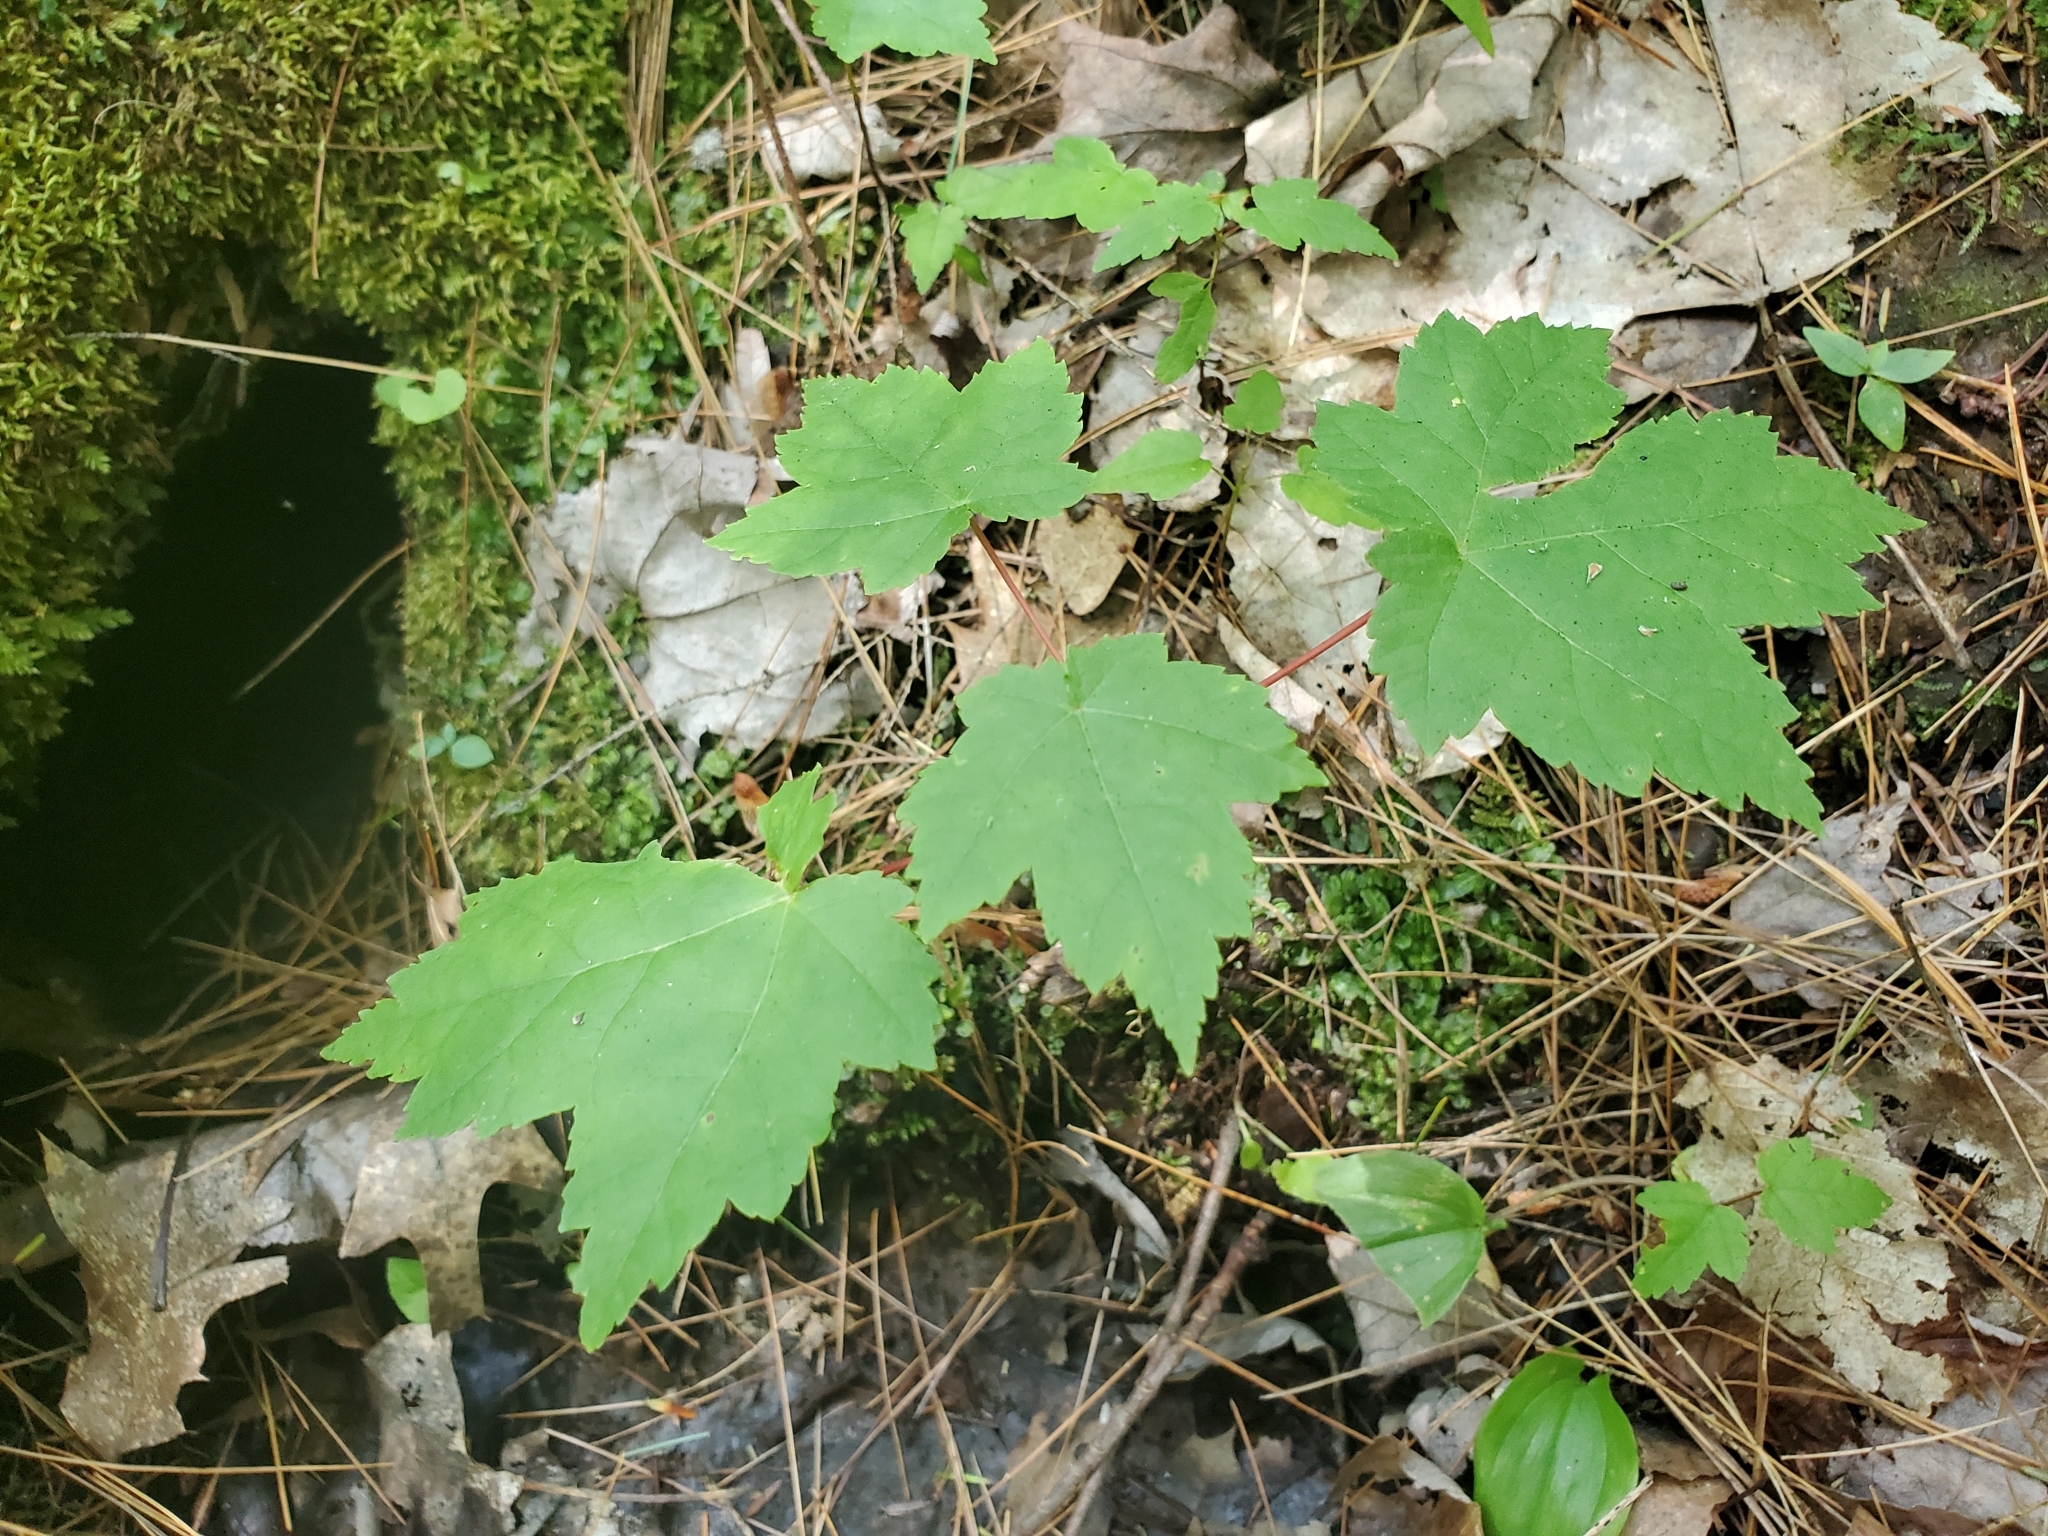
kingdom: Plantae
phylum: Tracheophyta
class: Magnoliopsida
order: Sapindales
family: Sapindaceae
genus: Acer
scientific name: Acer rubrum
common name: Red maple
